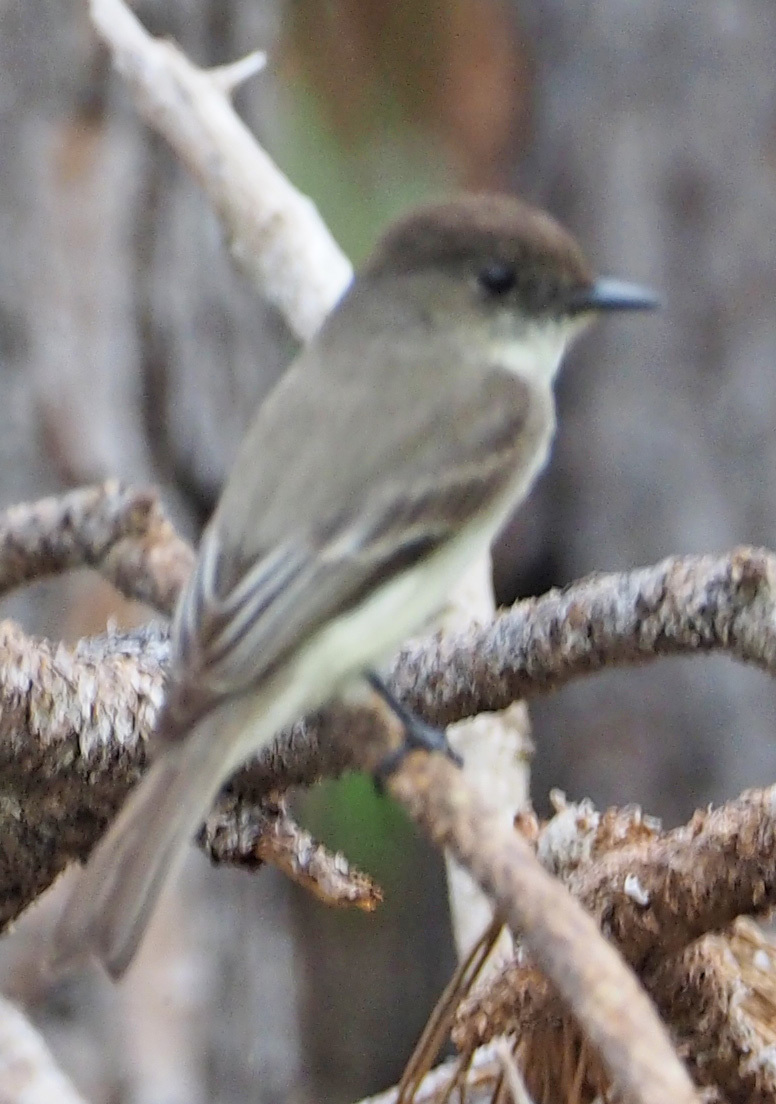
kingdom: Animalia
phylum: Chordata
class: Aves
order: Passeriformes
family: Tyrannidae
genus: Sayornis
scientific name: Sayornis phoebe
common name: Eastern phoebe
